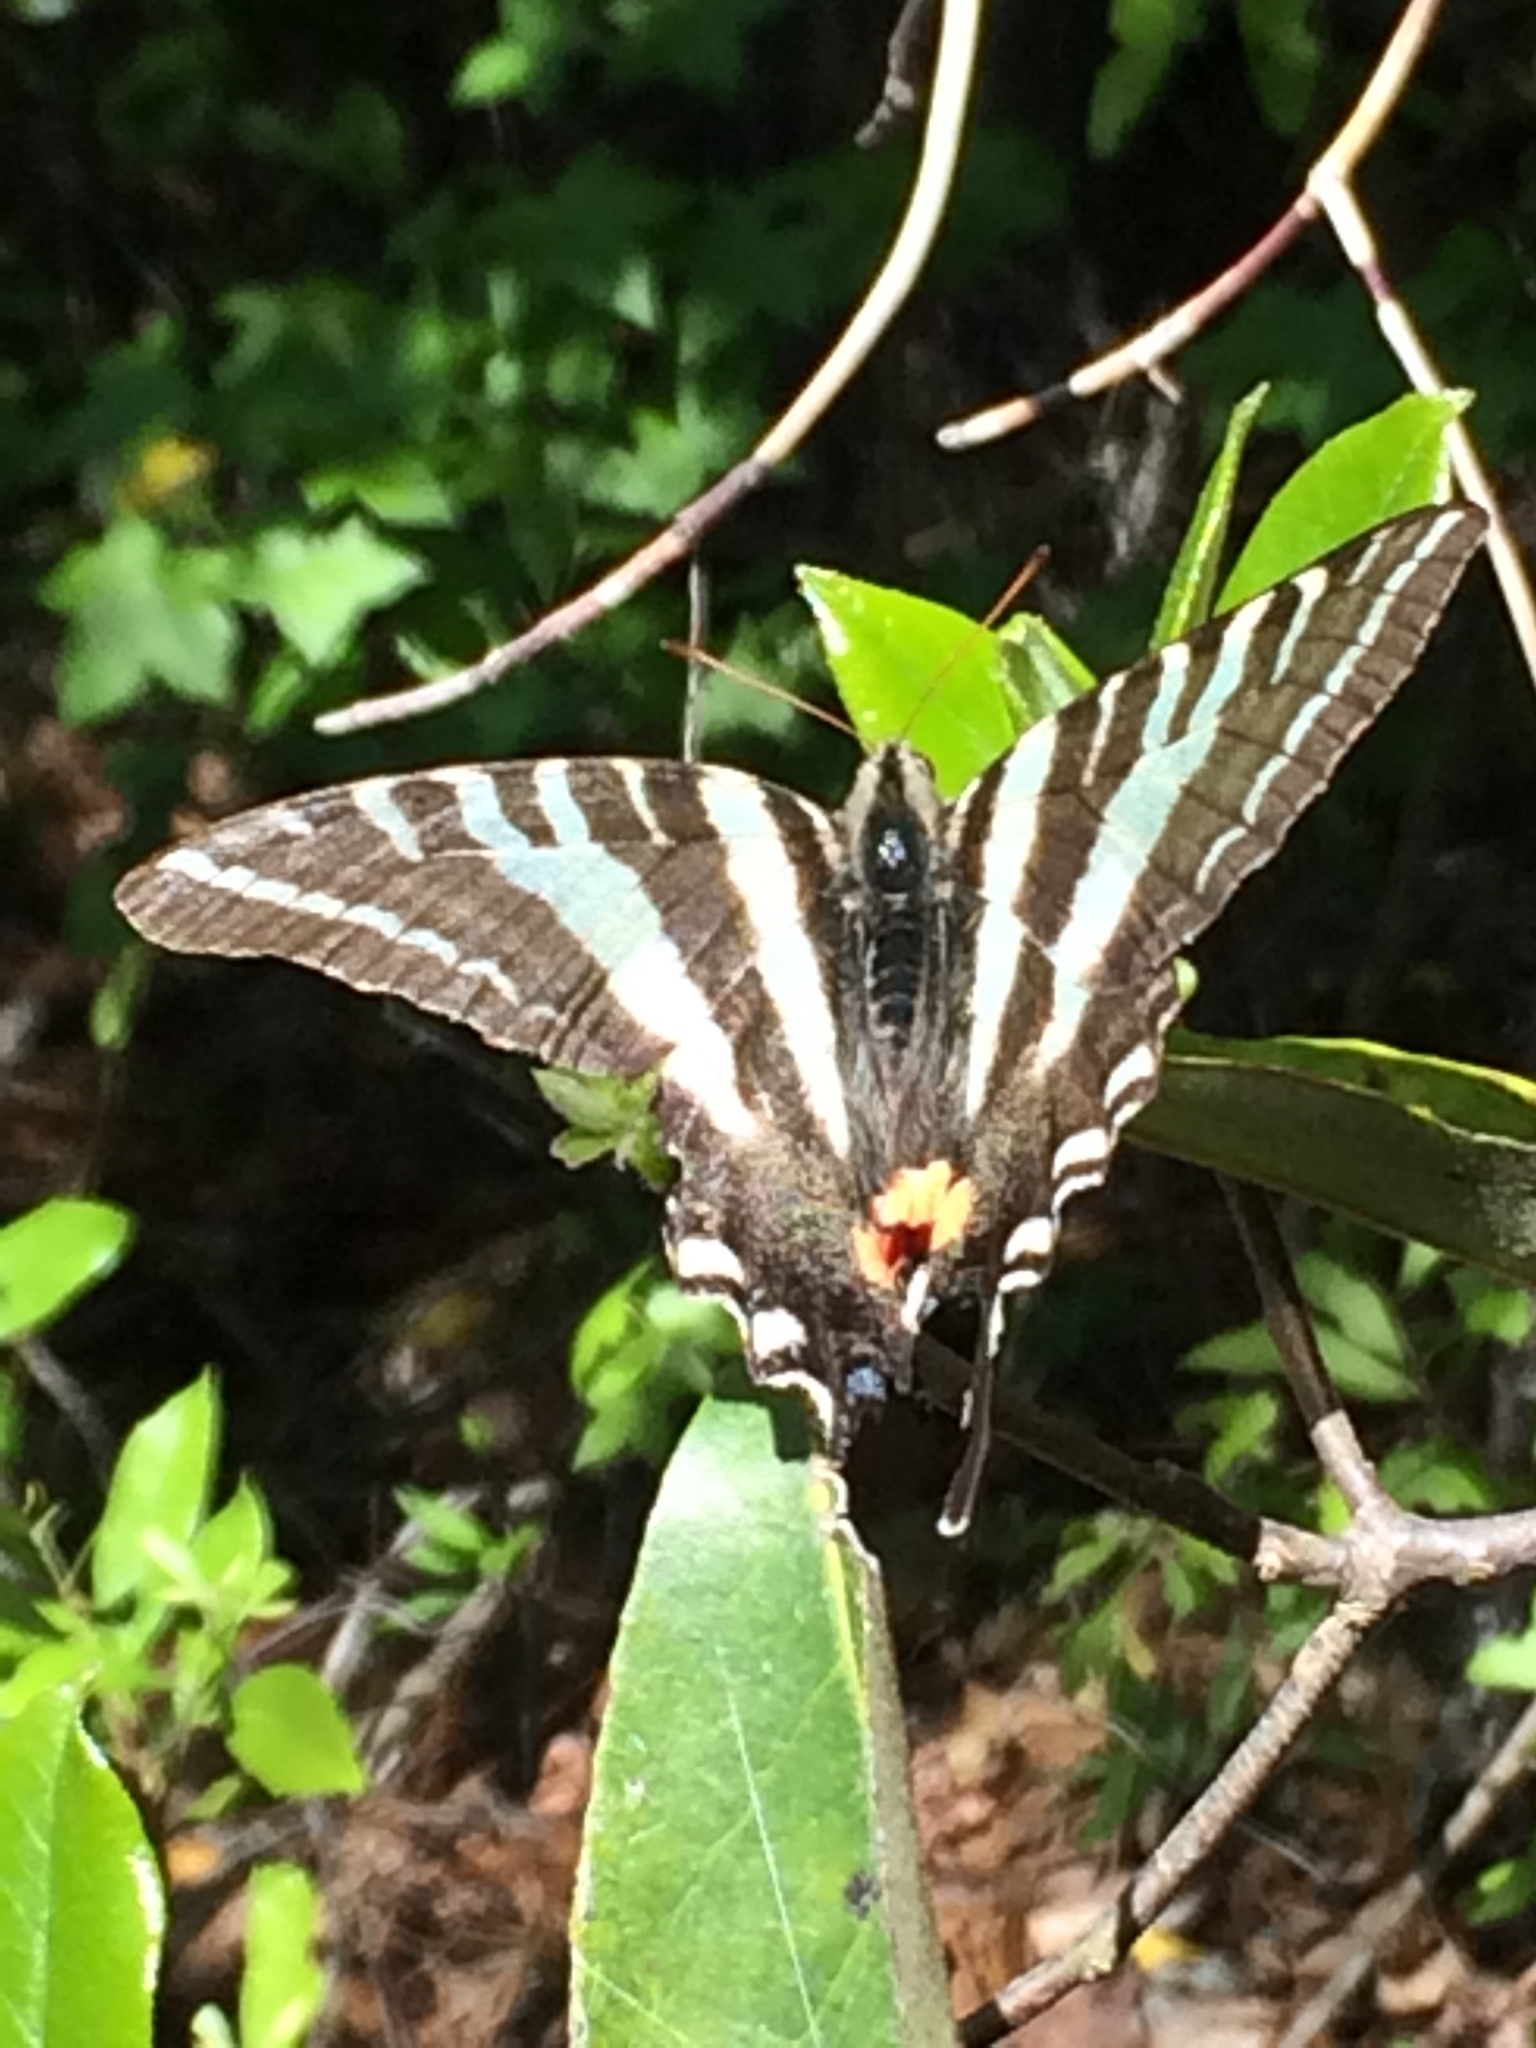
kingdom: Animalia
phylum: Arthropoda
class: Insecta
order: Lepidoptera
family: Papilionidae
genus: Protographium
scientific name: Protographium marcellus
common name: Zebra swallowtail
